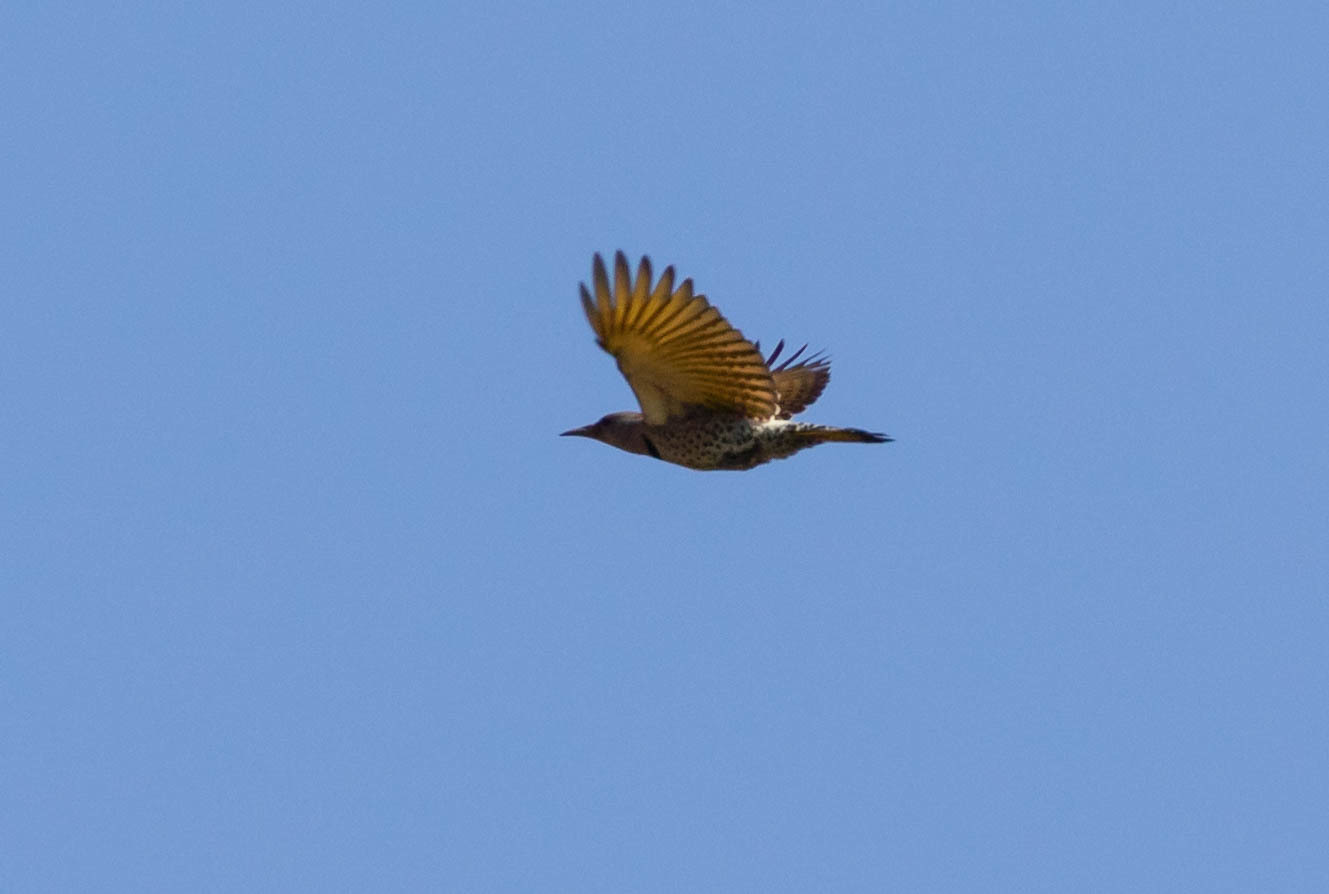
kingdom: Animalia
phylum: Chordata
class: Aves
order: Piciformes
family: Picidae
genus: Colaptes
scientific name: Colaptes auratus
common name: Northern flicker
